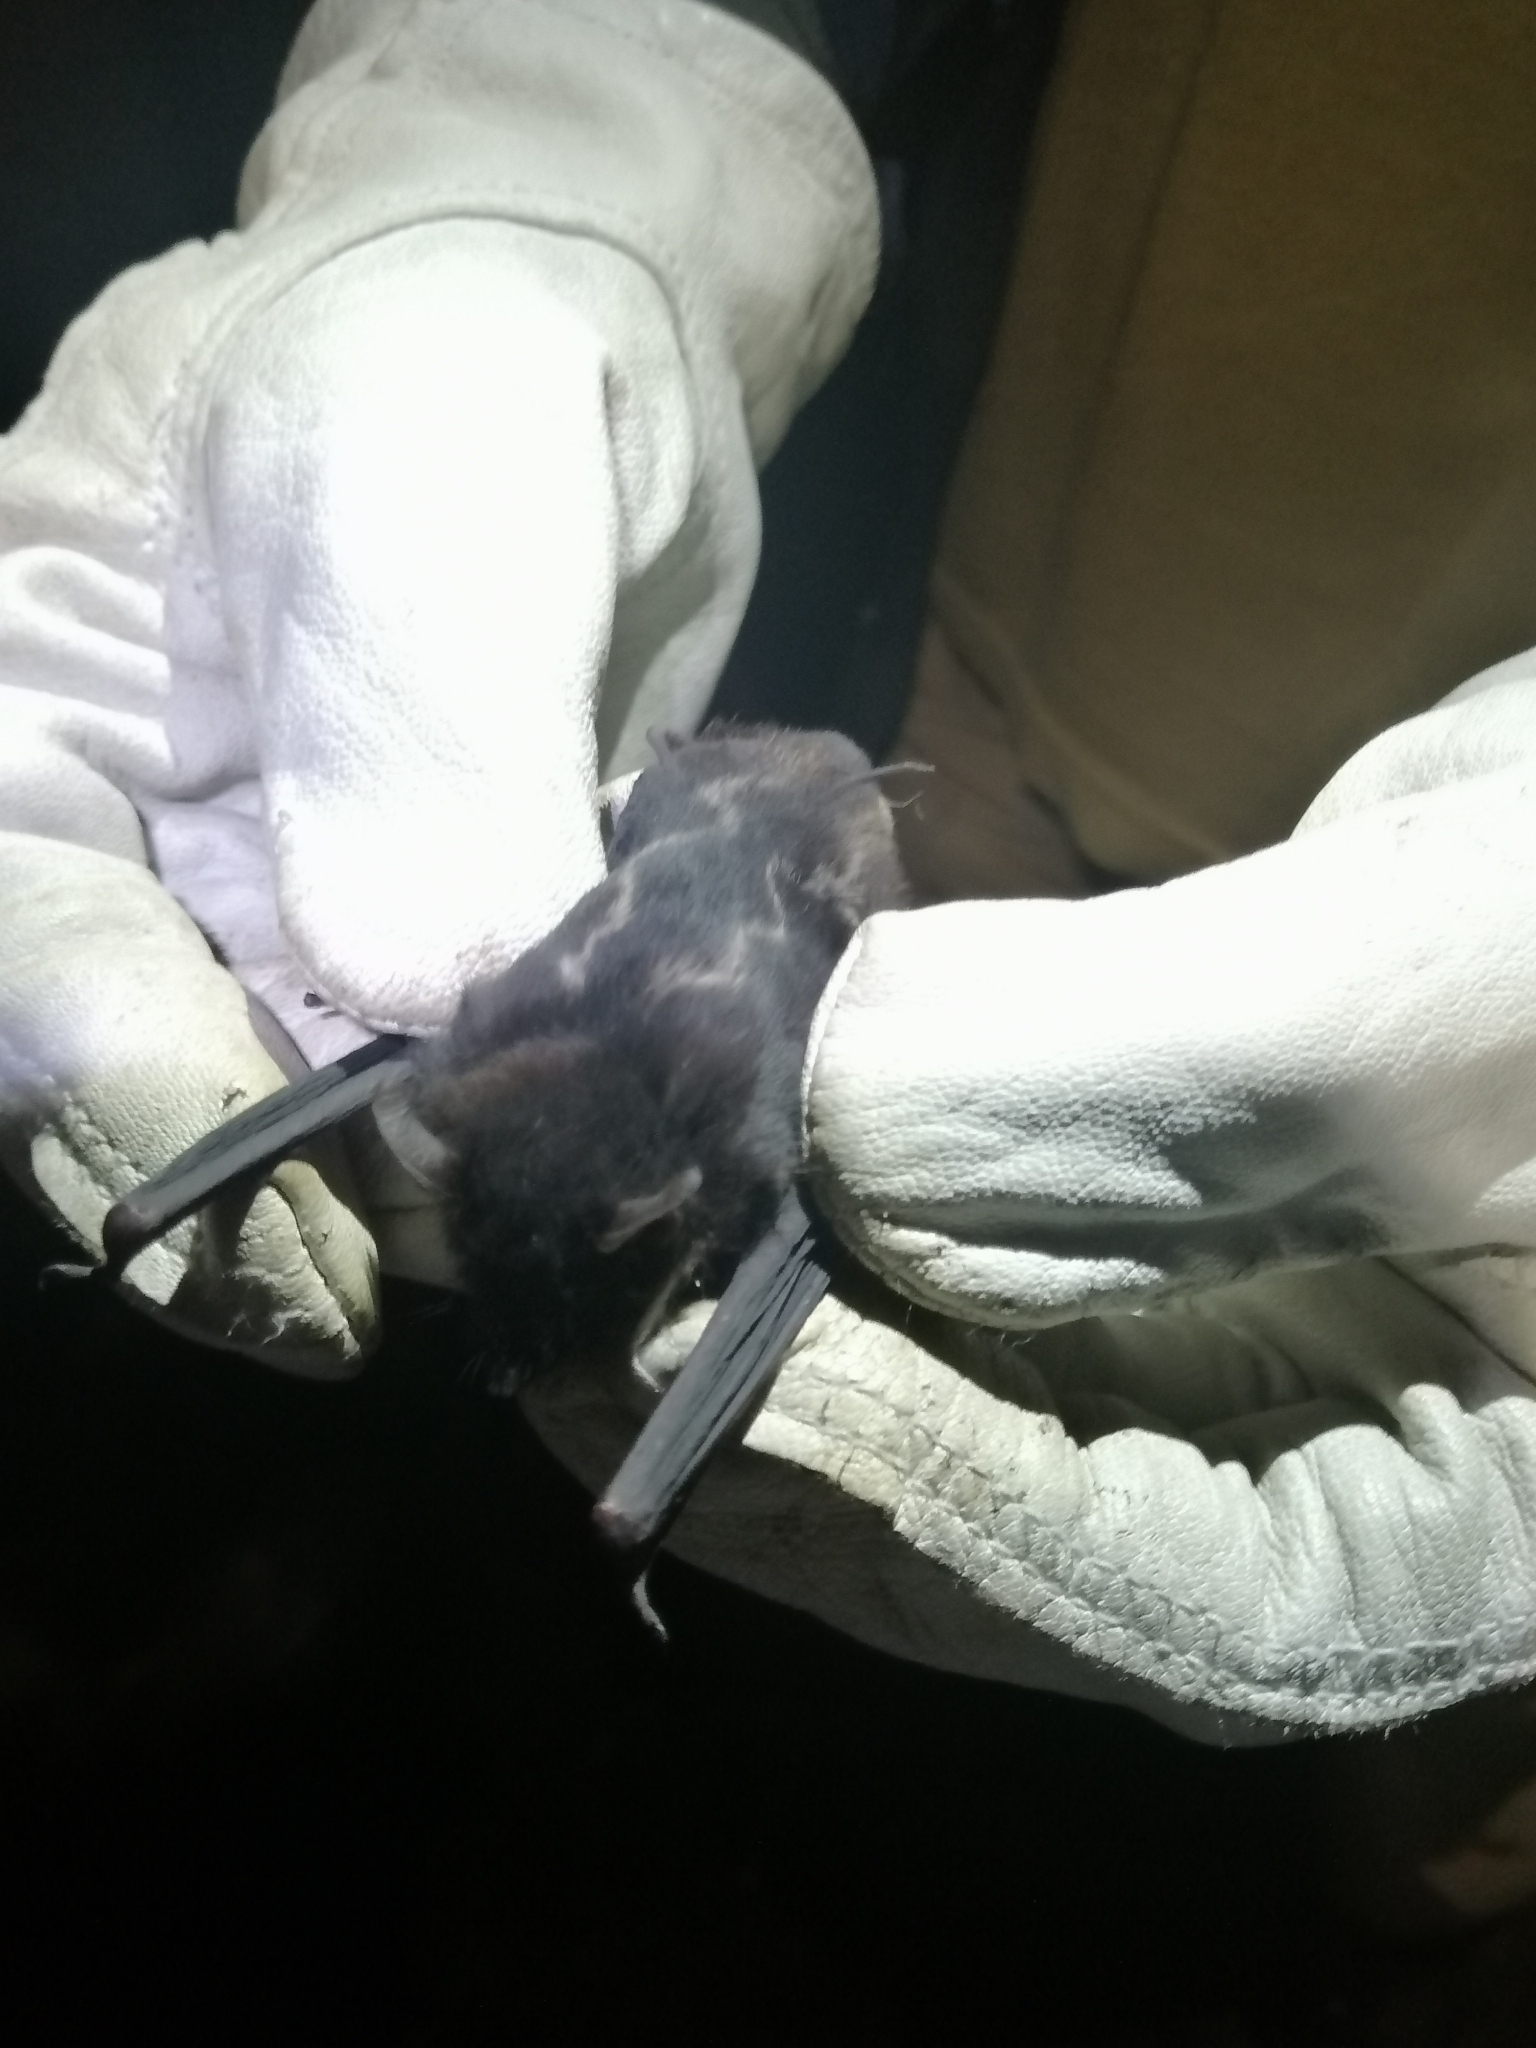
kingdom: Animalia
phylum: Chordata
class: Mammalia
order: Chiroptera
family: Emballonuridae
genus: Saccopteryx
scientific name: Saccopteryx bilineata
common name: Greater sac-winged bat
